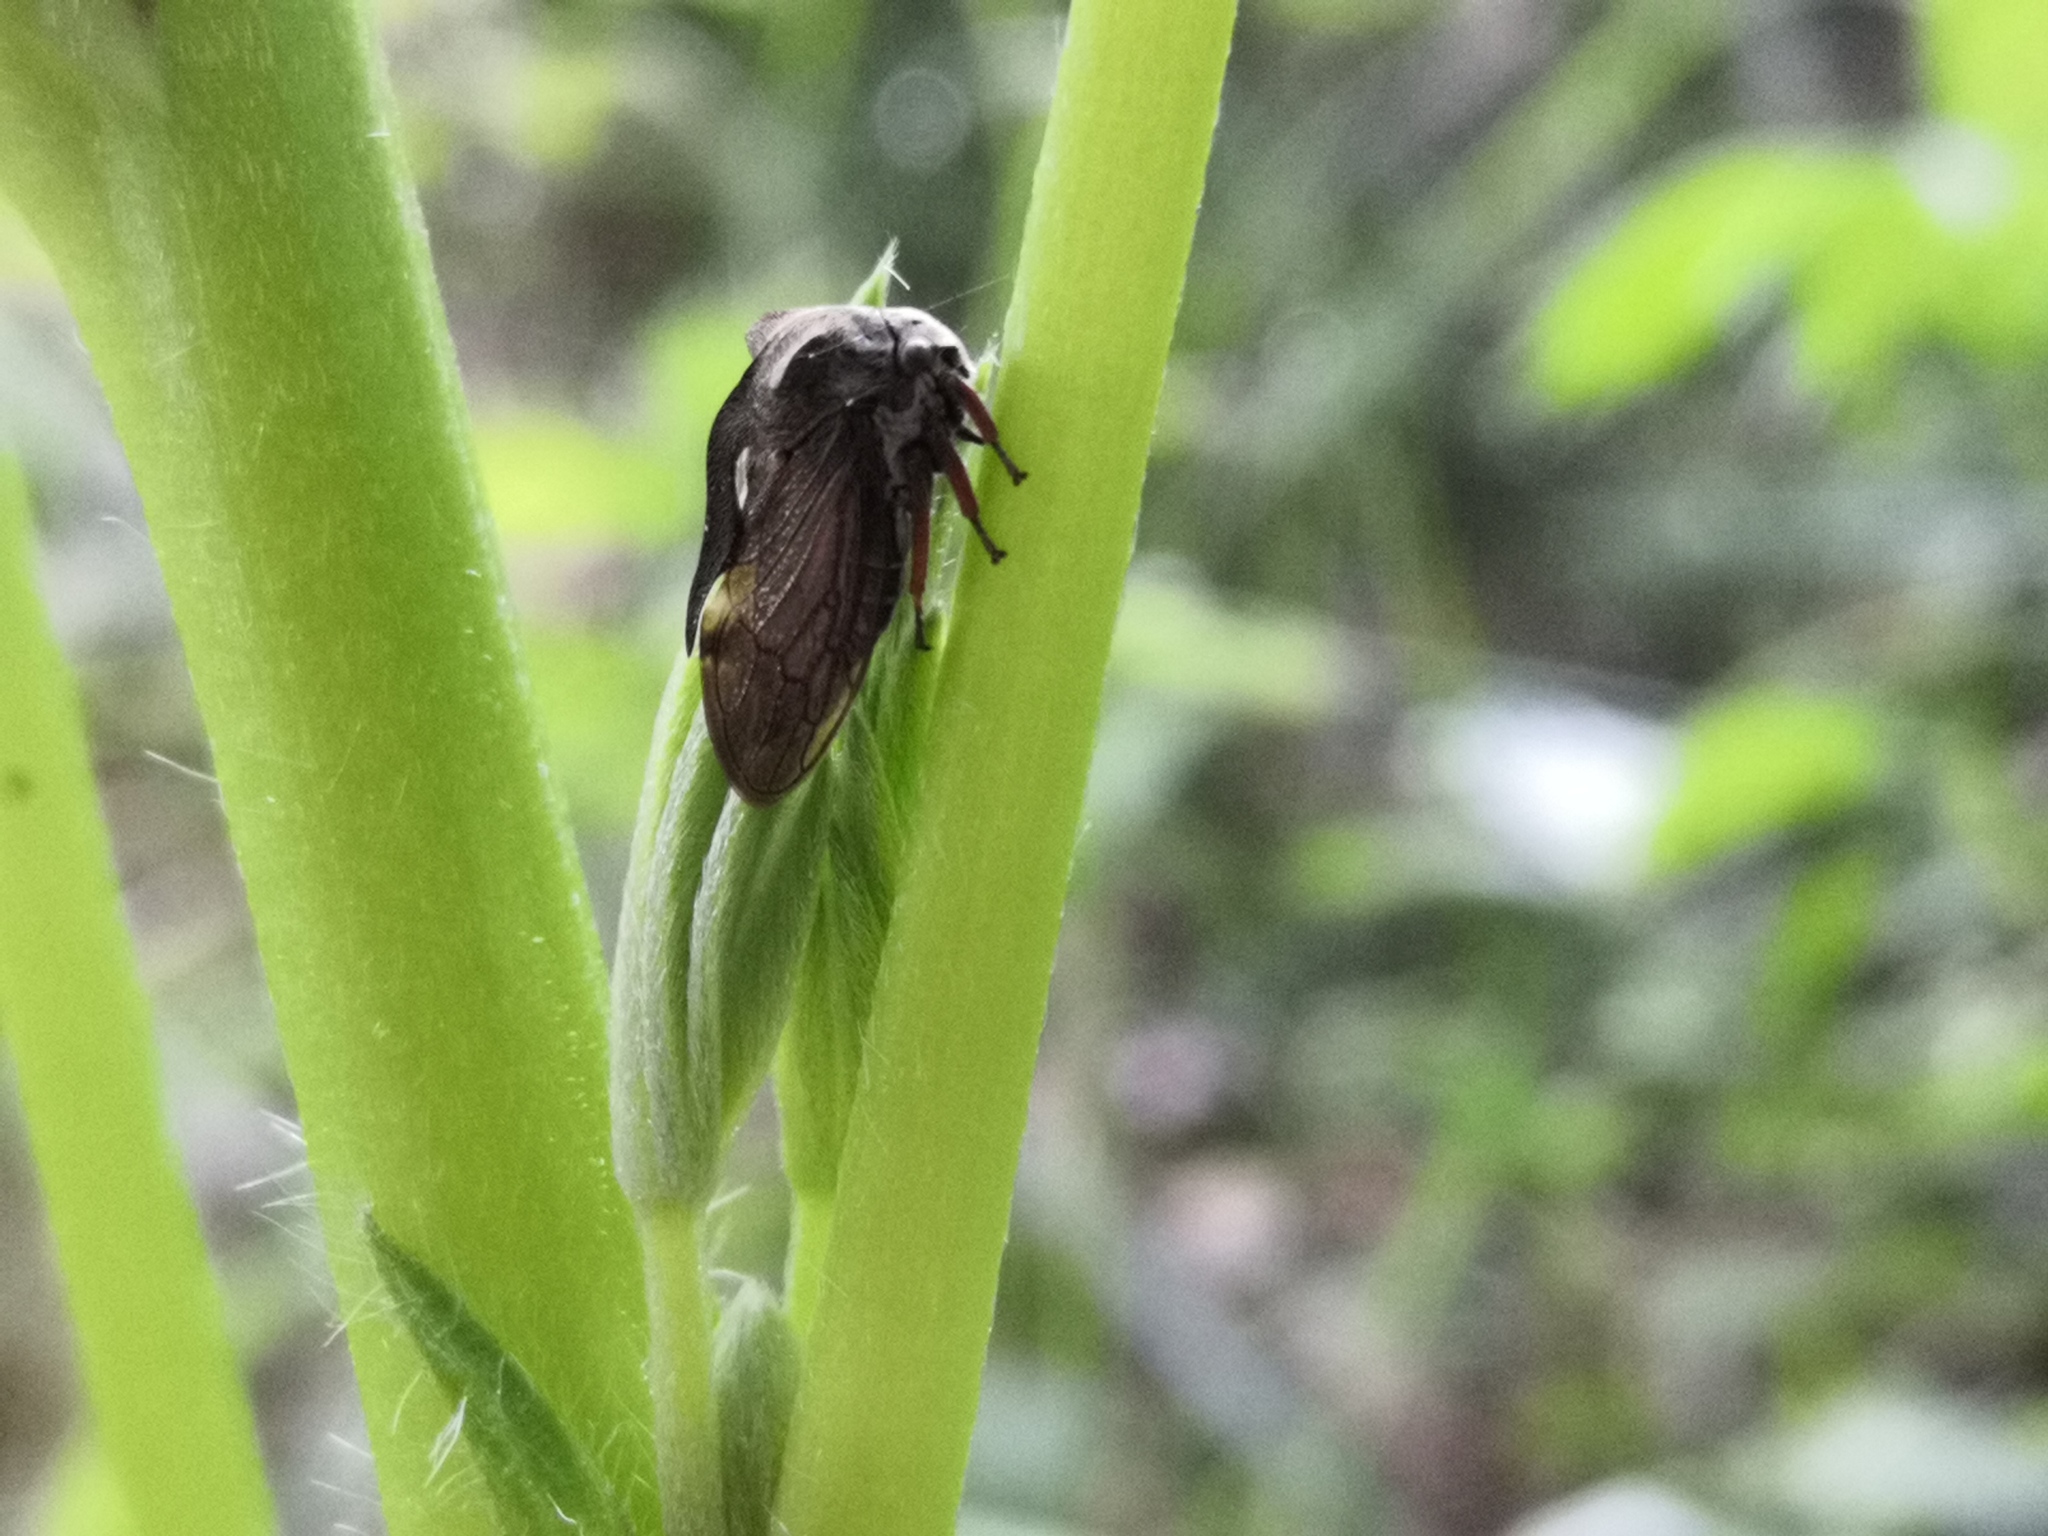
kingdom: Animalia
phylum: Arthropoda
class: Insecta
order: Hemiptera
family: Membracidae
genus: Centrotus
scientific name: Centrotus cornuta
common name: Treehopper
